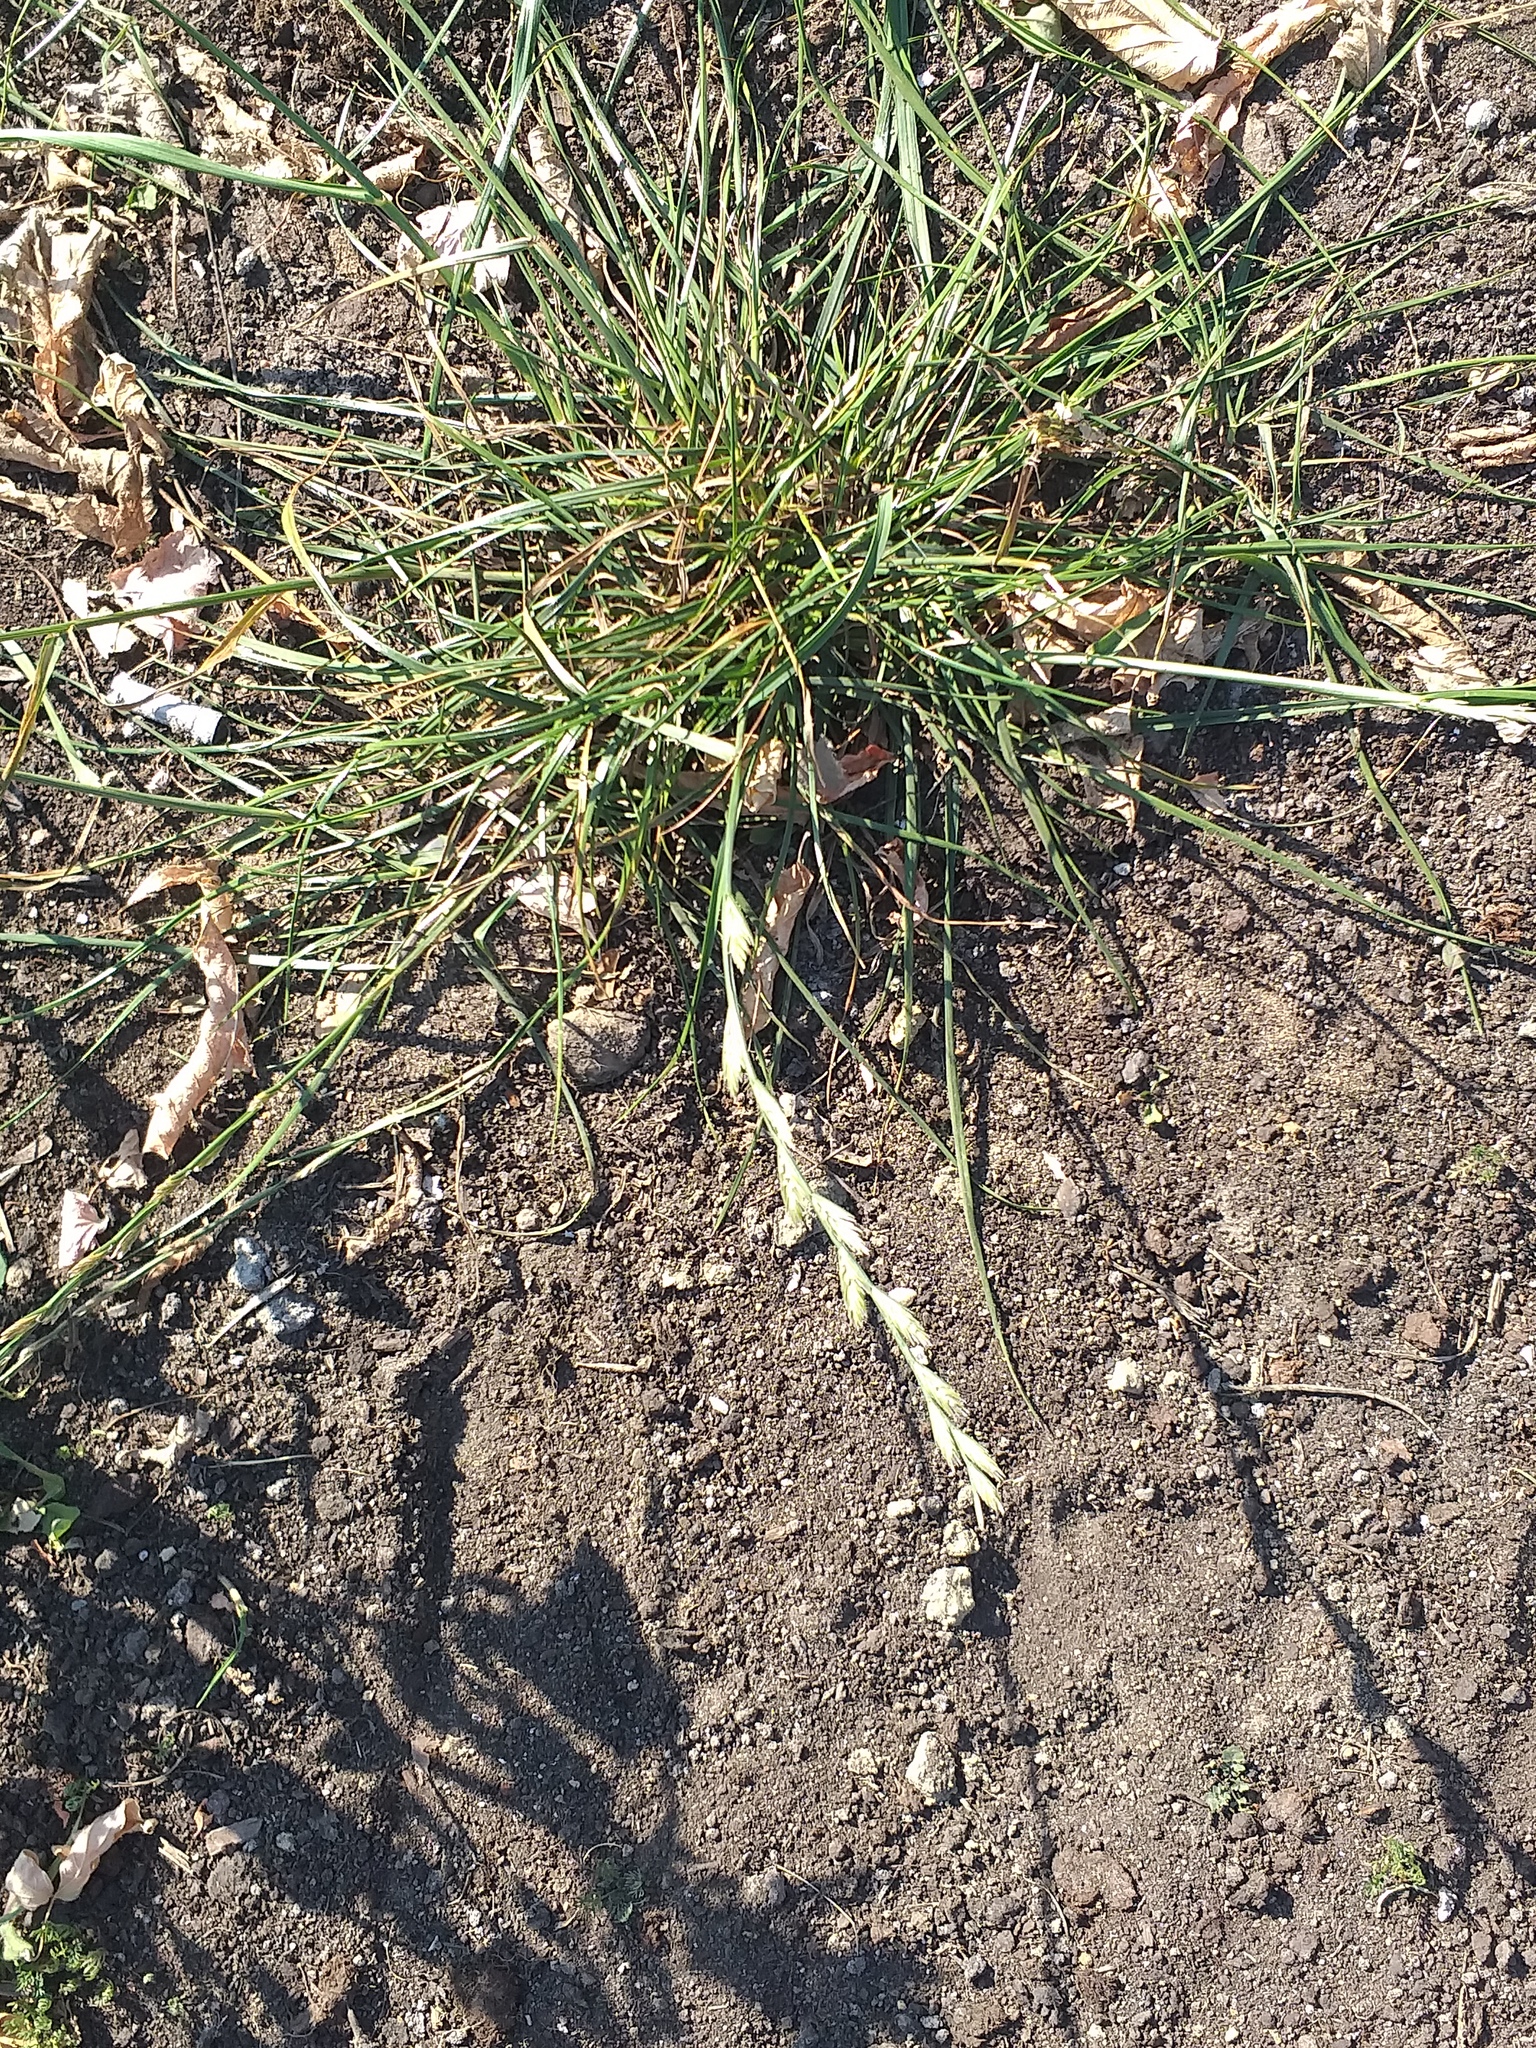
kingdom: Plantae
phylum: Tracheophyta
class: Liliopsida
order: Poales
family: Poaceae
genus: Lolium
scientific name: Lolium perenne
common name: Perennial ryegrass
